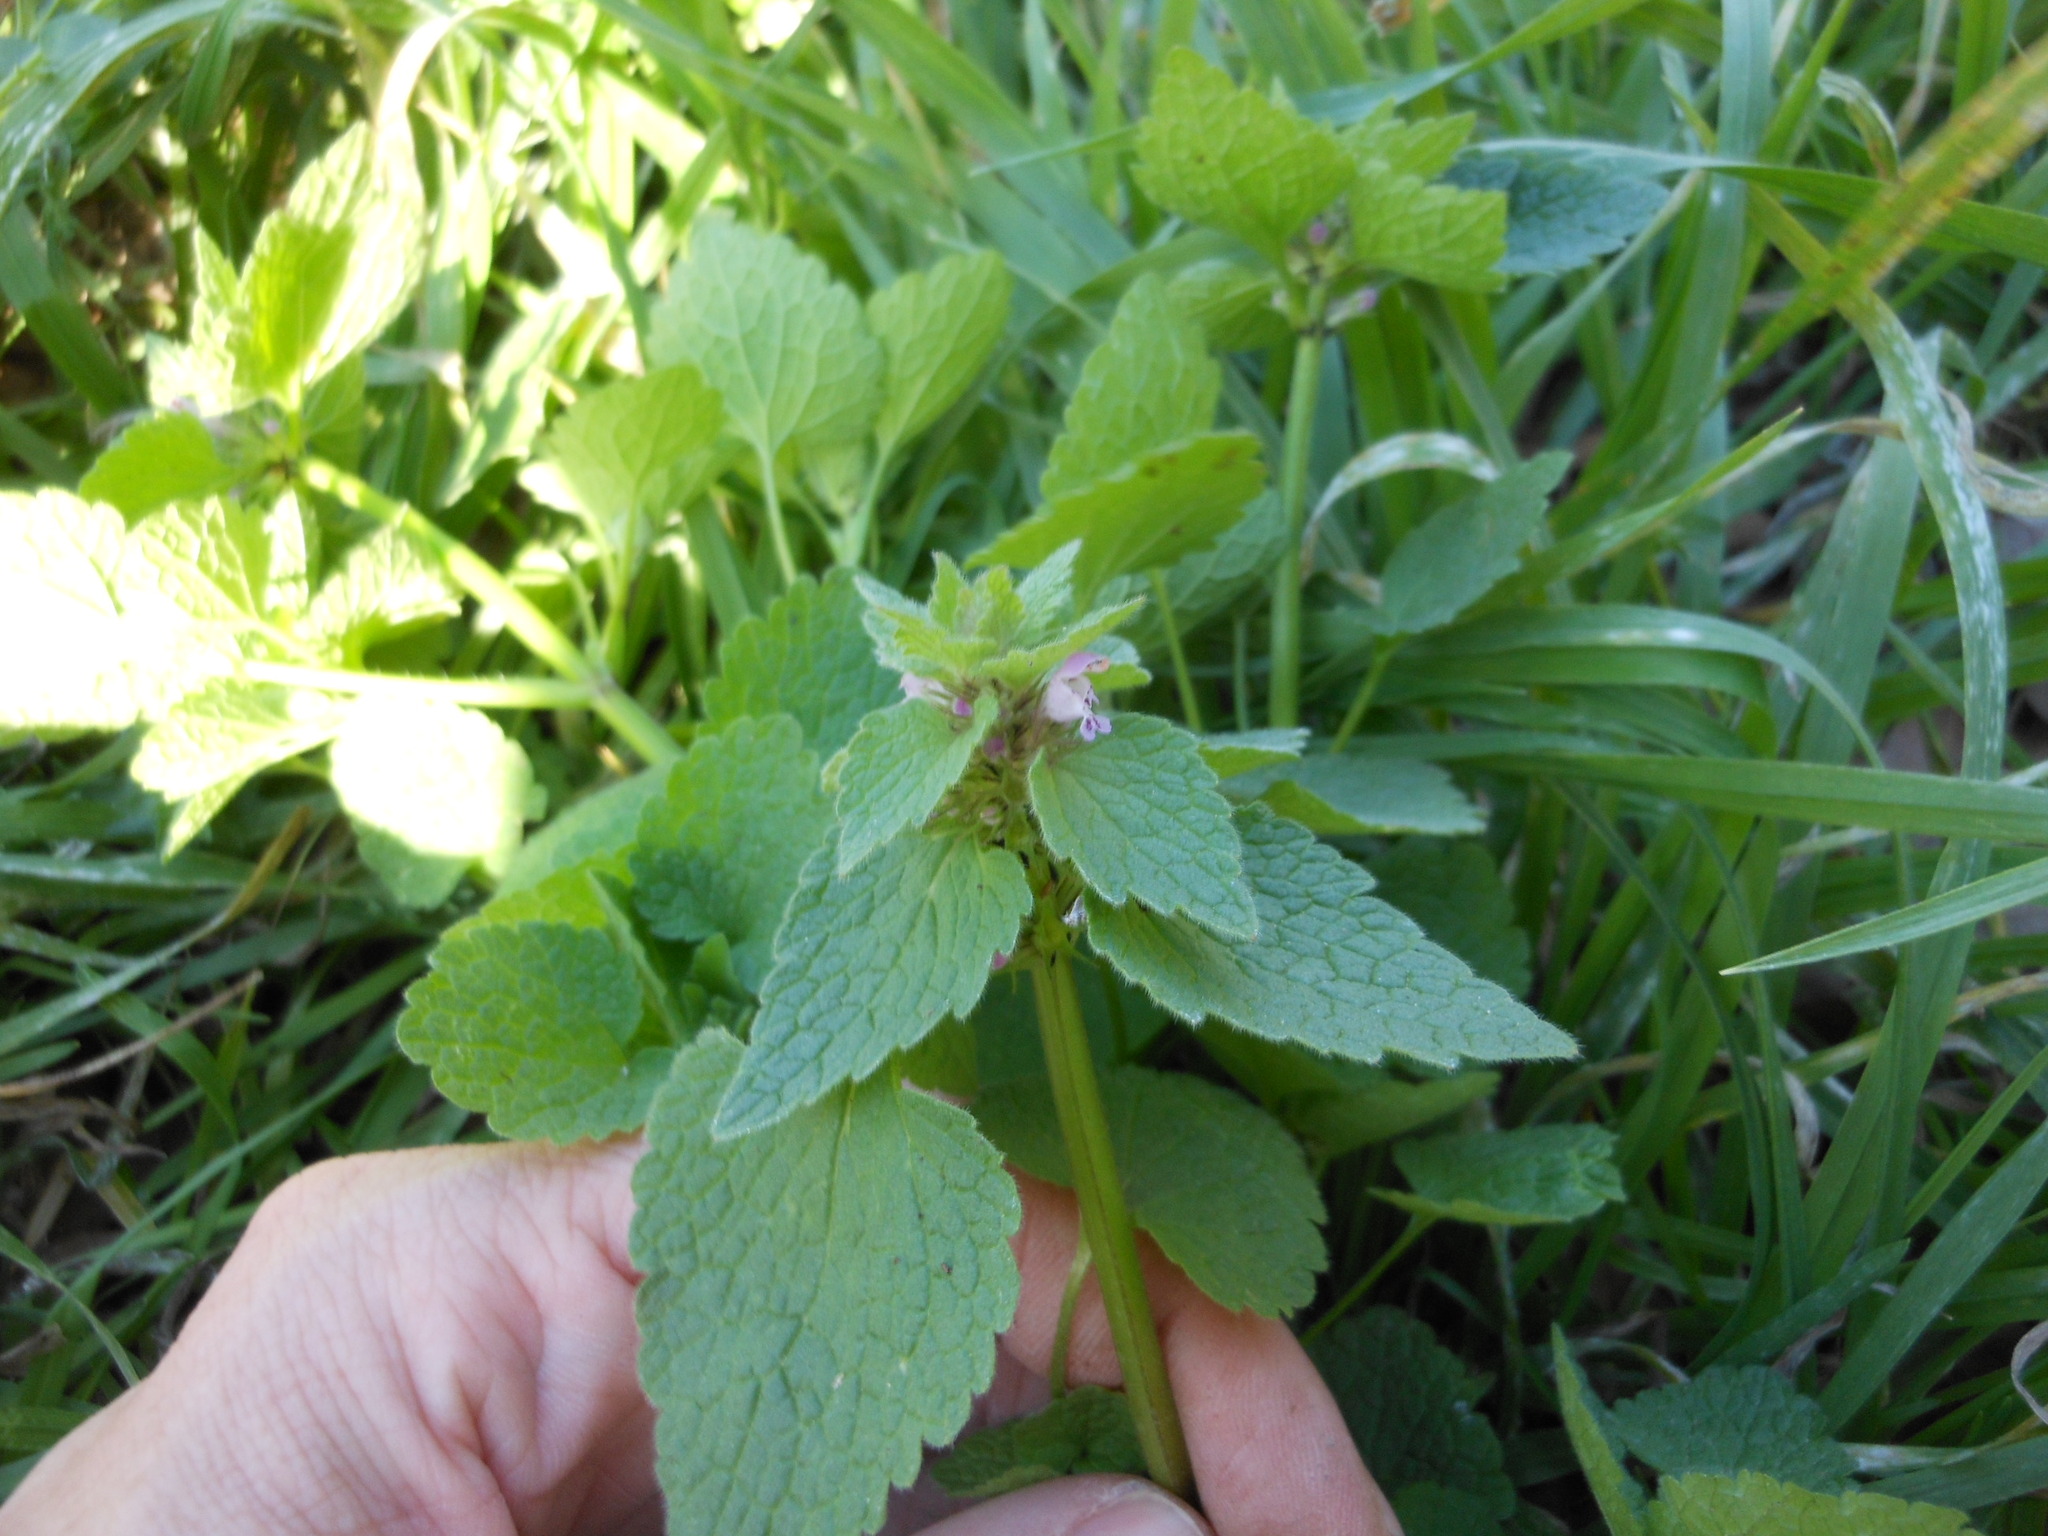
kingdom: Plantae
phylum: Tracheophyta
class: Magnoliopsida
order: Lamiales
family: Lamiaceae
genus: Lamium
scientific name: Lamium purpureum
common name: Red dead-nettle
